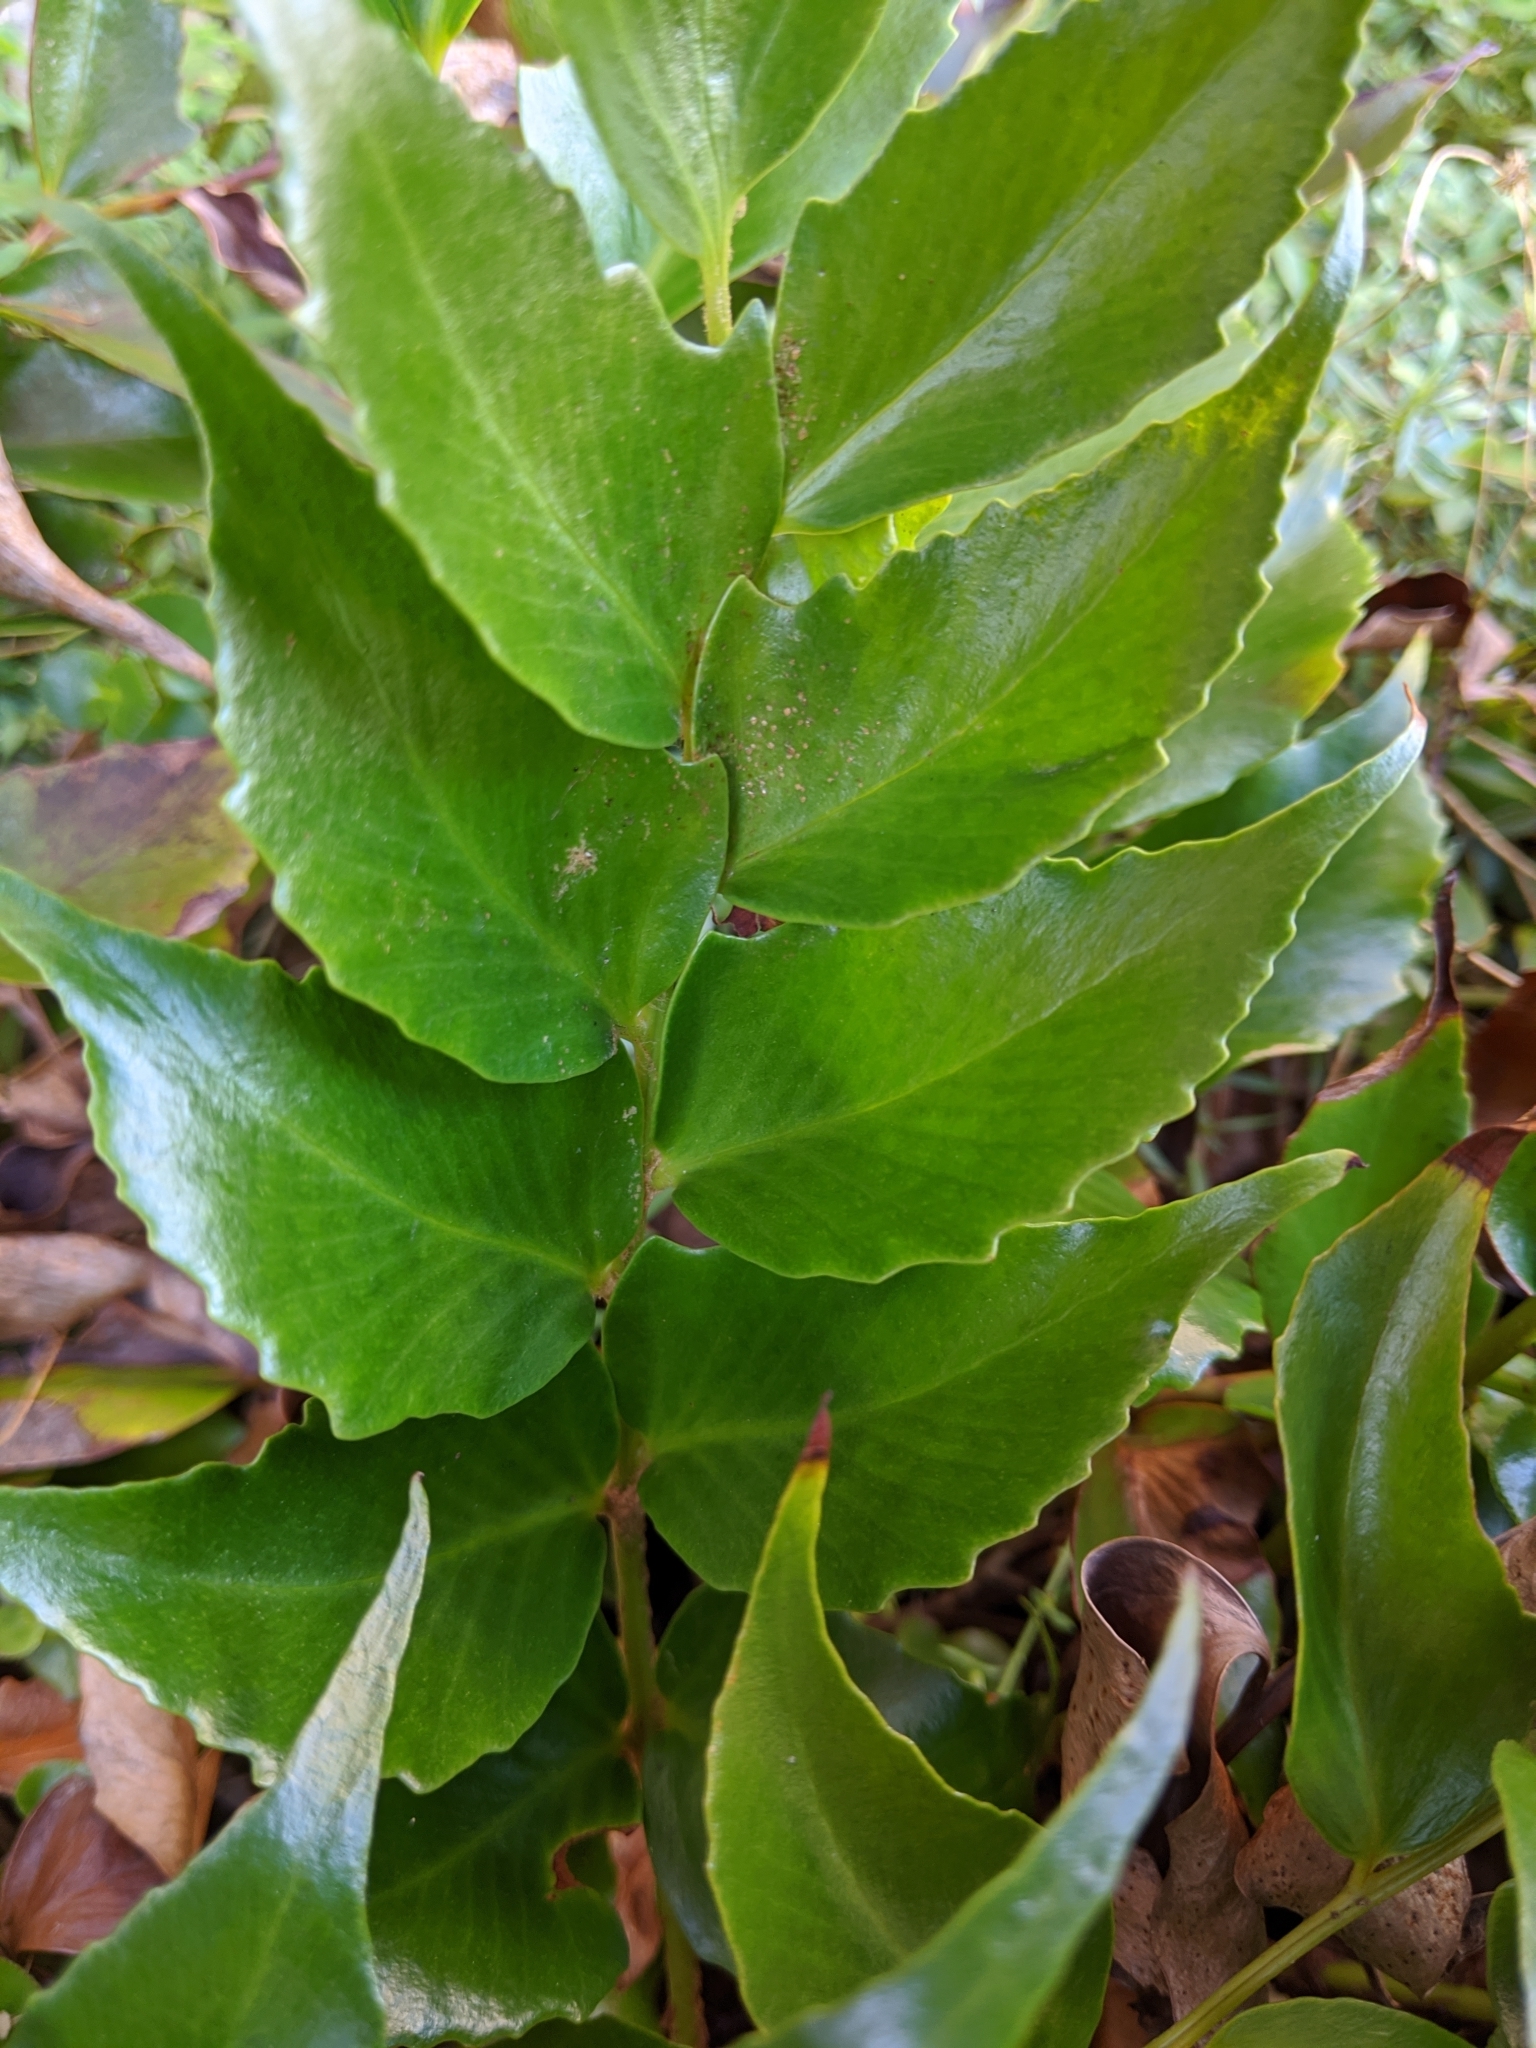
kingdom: Plantae
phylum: Tracheophyta
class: Polypodiopsida
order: Polypodiales
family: Dryopteridaceae
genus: Cyrtomium
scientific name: Cyrtomium falcatum
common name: House holly-fern
